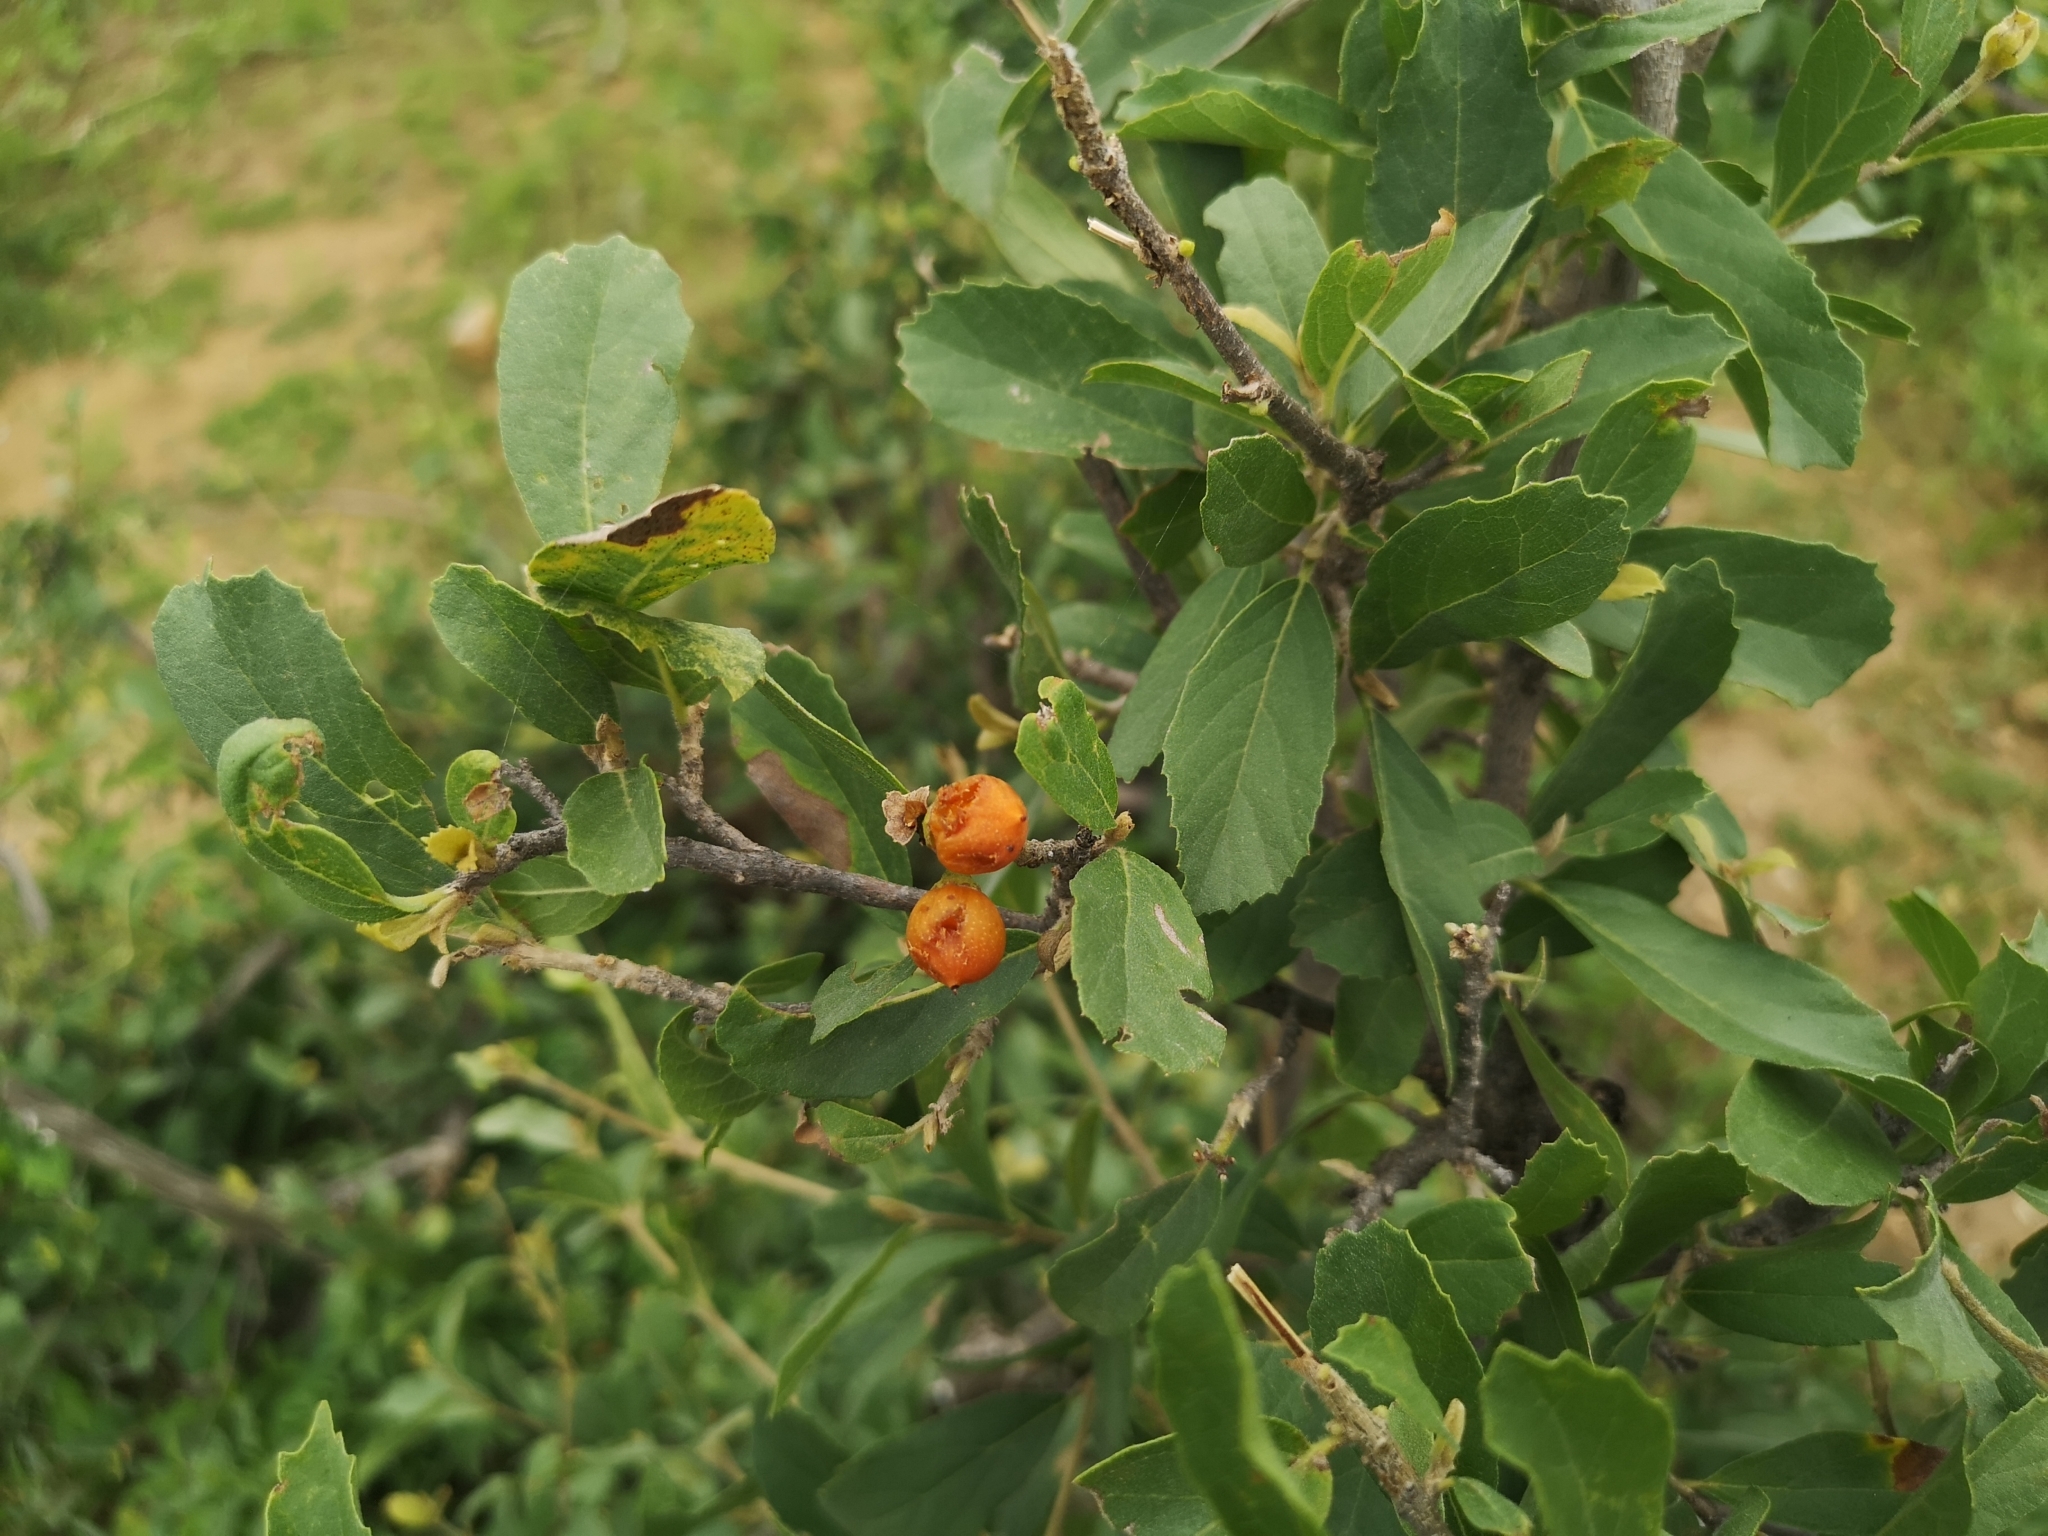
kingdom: Plantae
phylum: Tracheophyta
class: Magnoliopsida
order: Boraginales
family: Cordiaceae
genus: Cordia
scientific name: Cordia quercifolia
